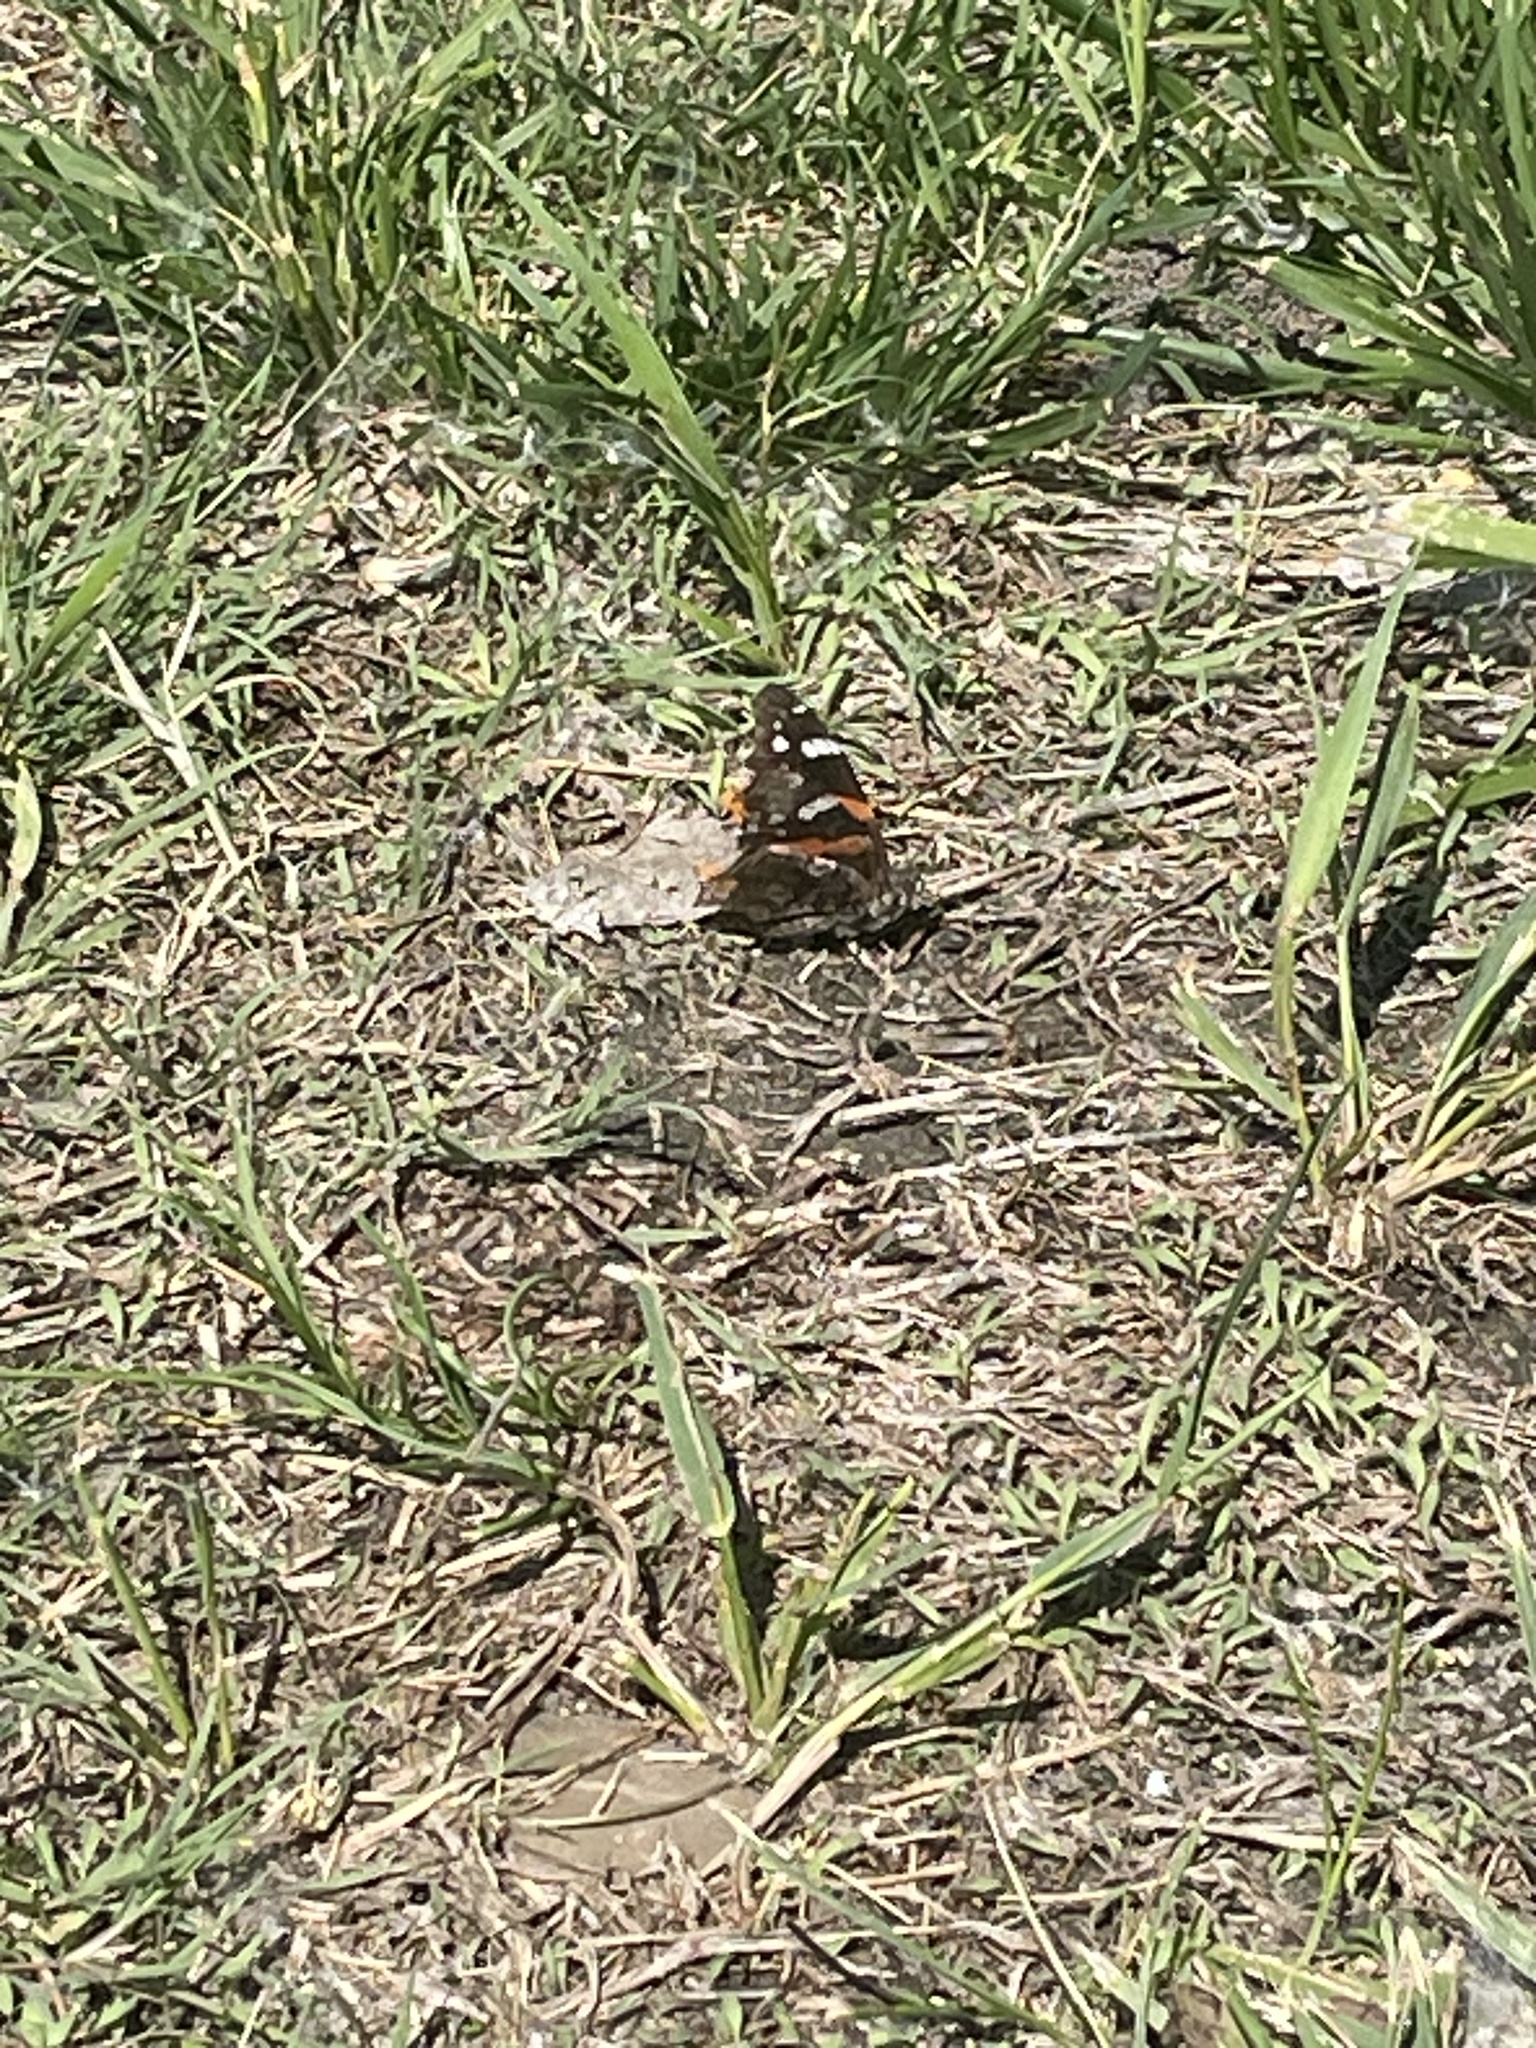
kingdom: Animalia
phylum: Arthropoda
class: Insecta
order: Lepidoptera
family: Nymphalidae
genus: Vanessa
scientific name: Vanessa atalanta
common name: Red admiral
